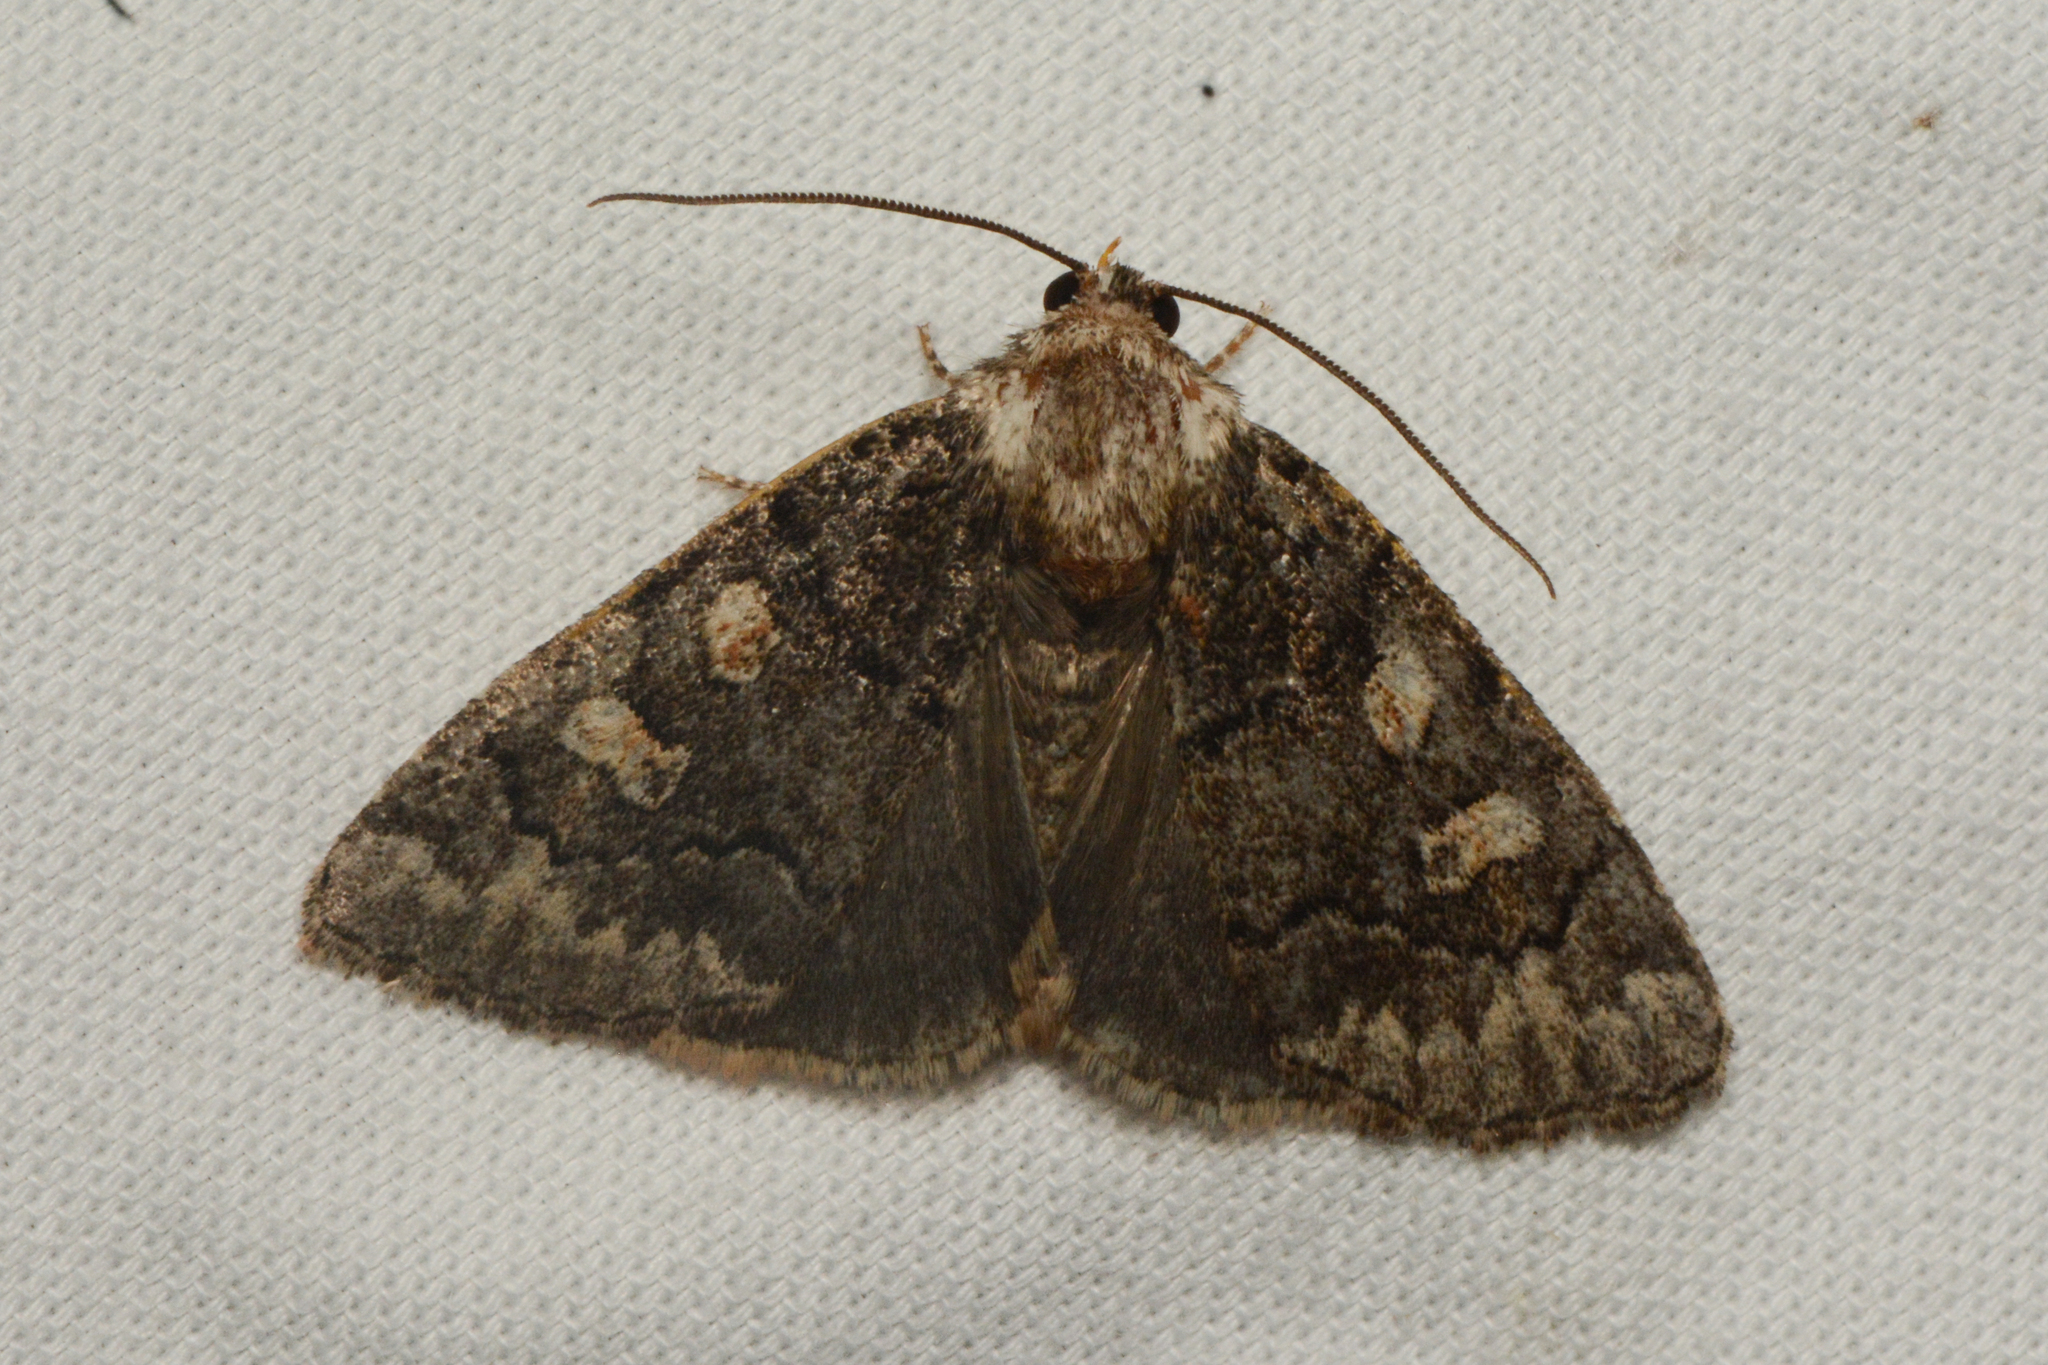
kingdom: Animalia
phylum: Arthropoda
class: Insecta
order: Lepidoptera
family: Noctuidae
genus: Cosmia
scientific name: Cosmia praeacuta
